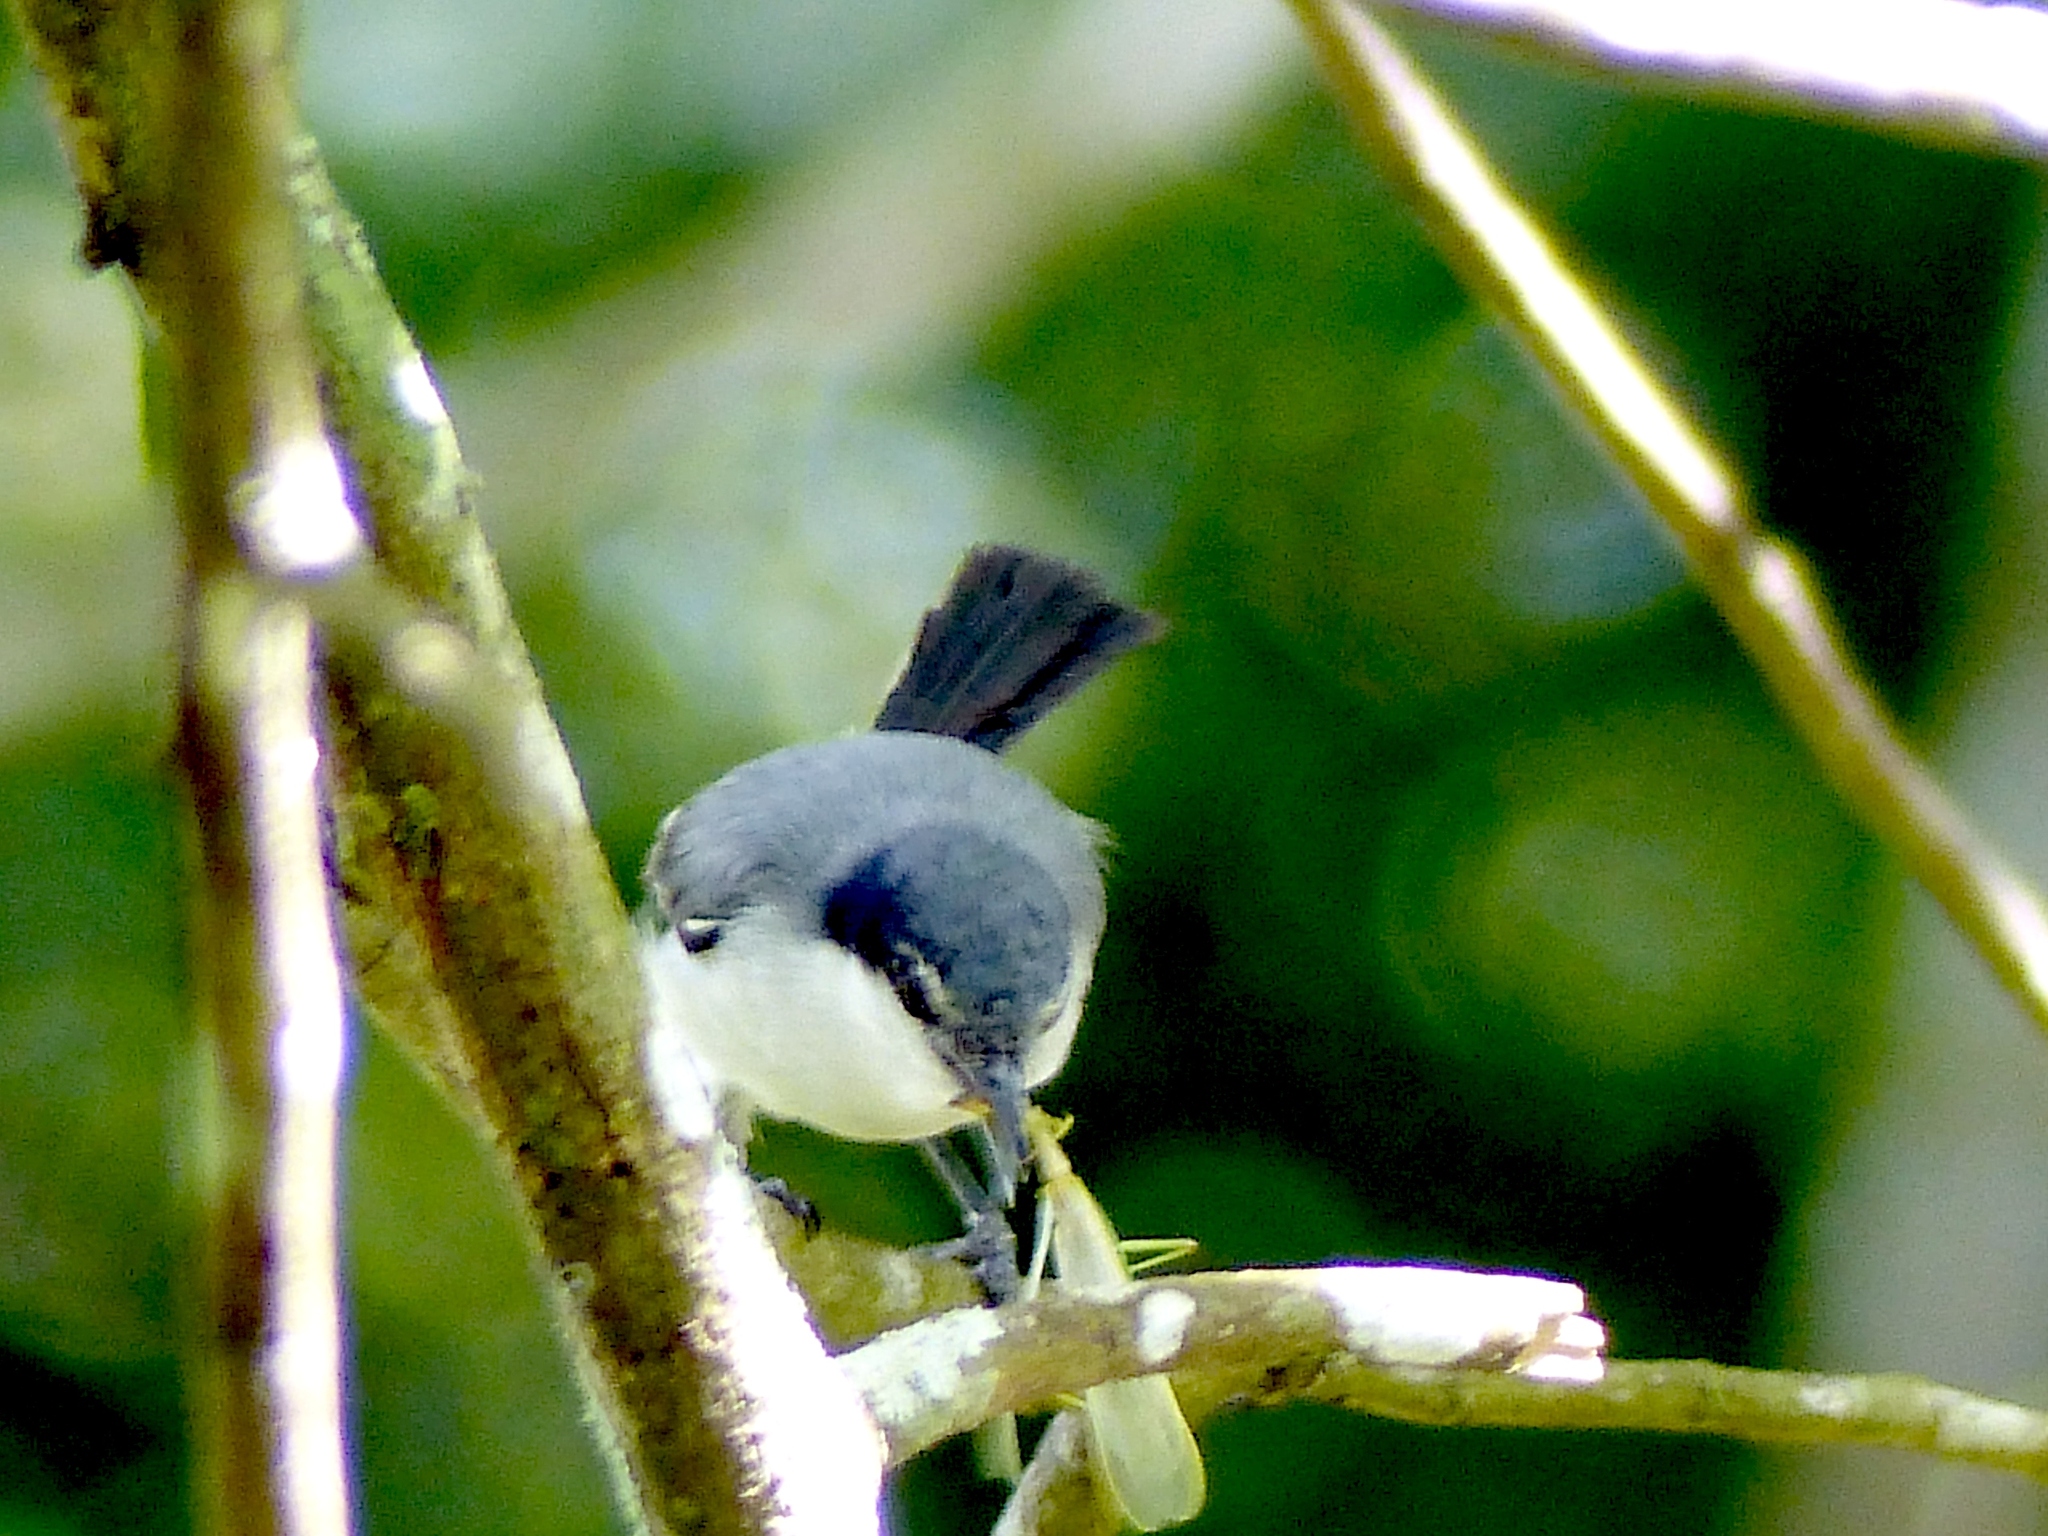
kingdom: Animalia
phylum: Chordata
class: Aves
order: Passeriformes
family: Polioptilidae
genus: Polioptila
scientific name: Polioptila plumbea
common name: Tropical gnatcatcher
